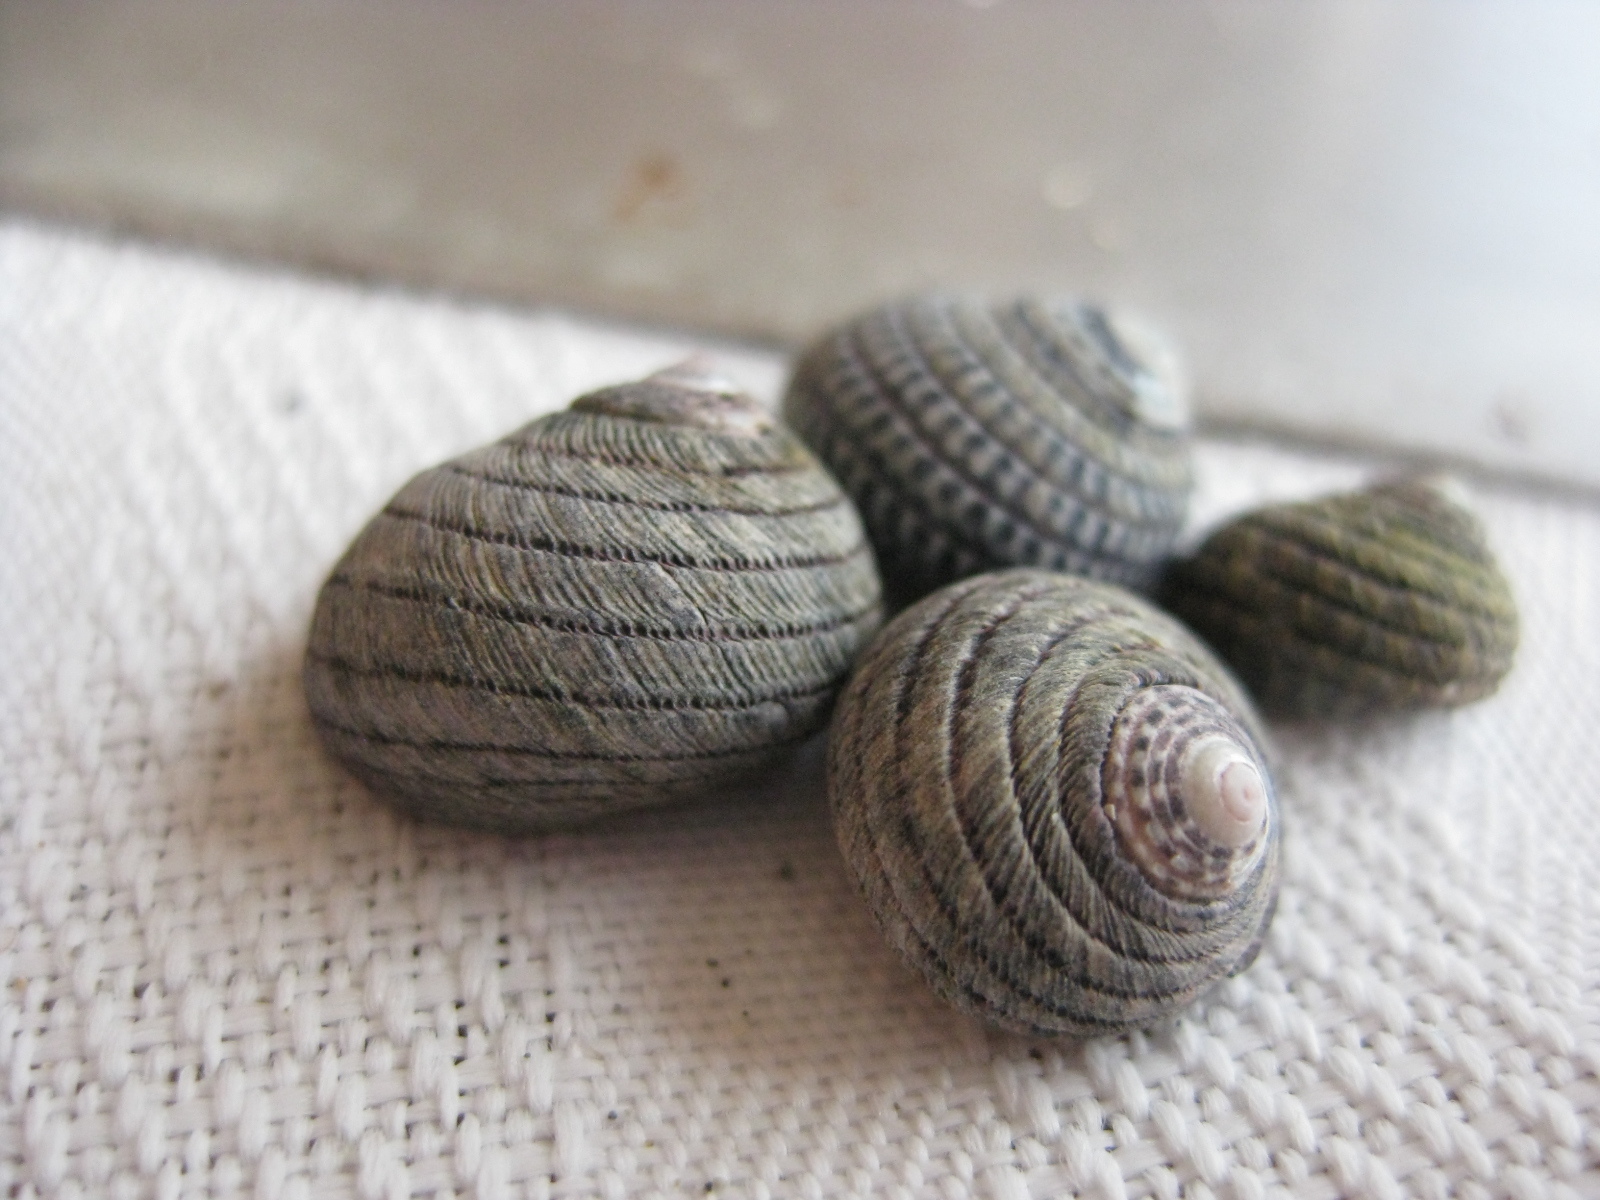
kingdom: Animalia
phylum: Mollusca
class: Gastropoda
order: Trochida
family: Trochidae
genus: Diloma
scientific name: Diloma aethiops
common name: Scorched monodont
